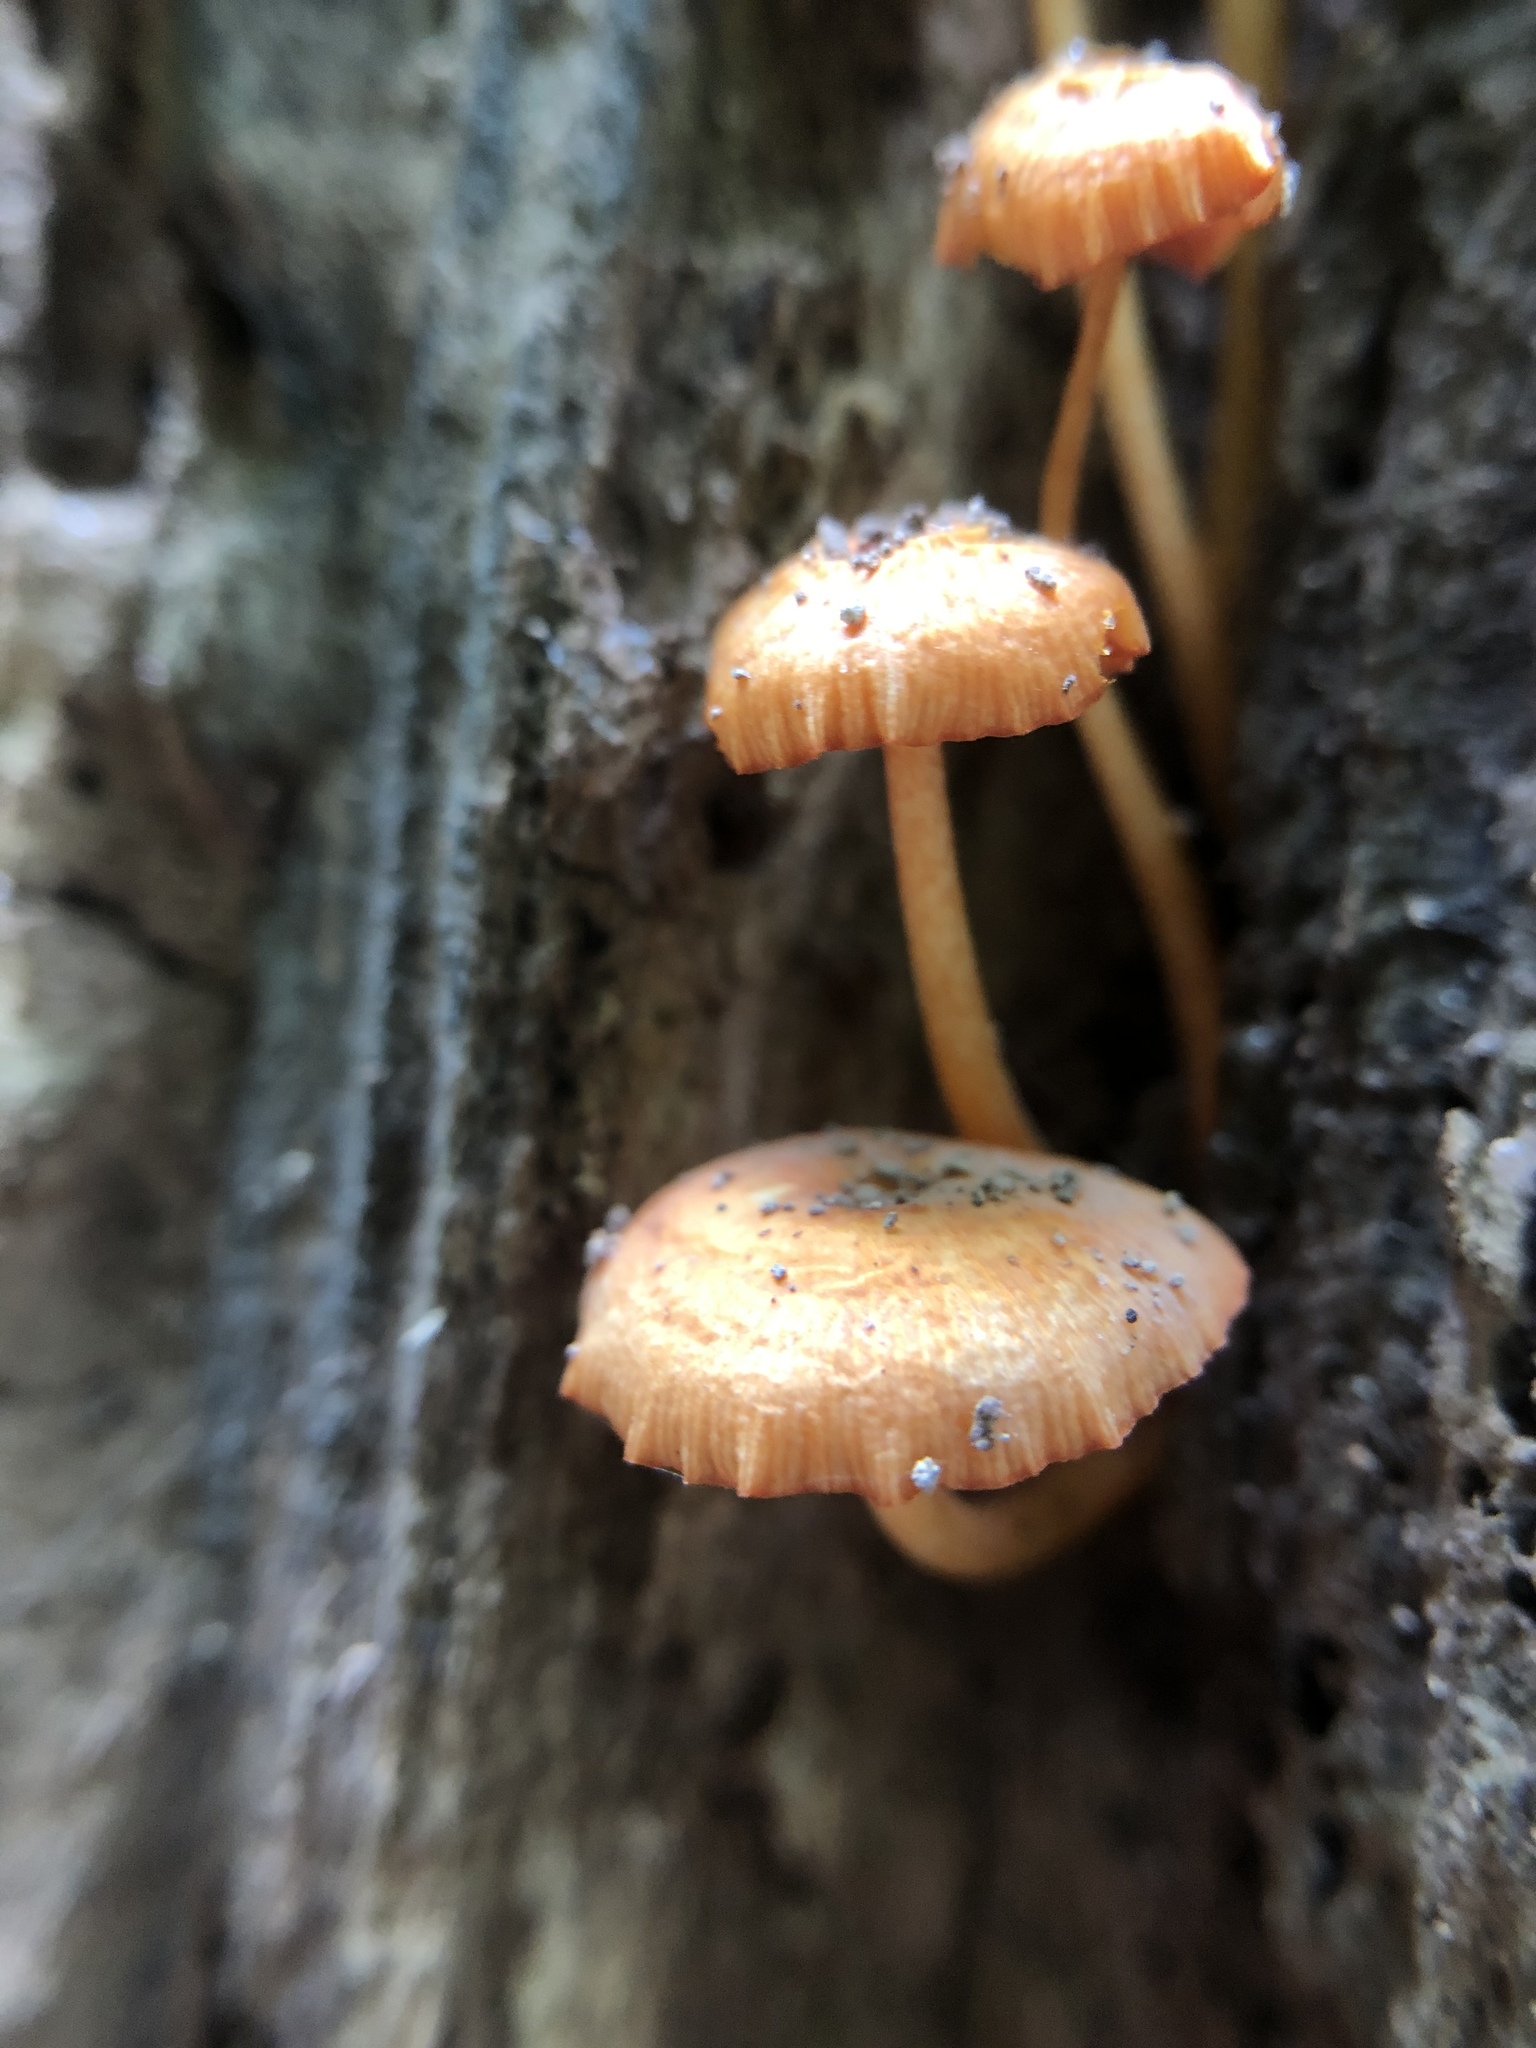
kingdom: Fungi
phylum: Basidiomycota
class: Agaricomycetes
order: Agaricales
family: Mycenaceae
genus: Mycena
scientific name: Mycena leaiana
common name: Orange mycena
